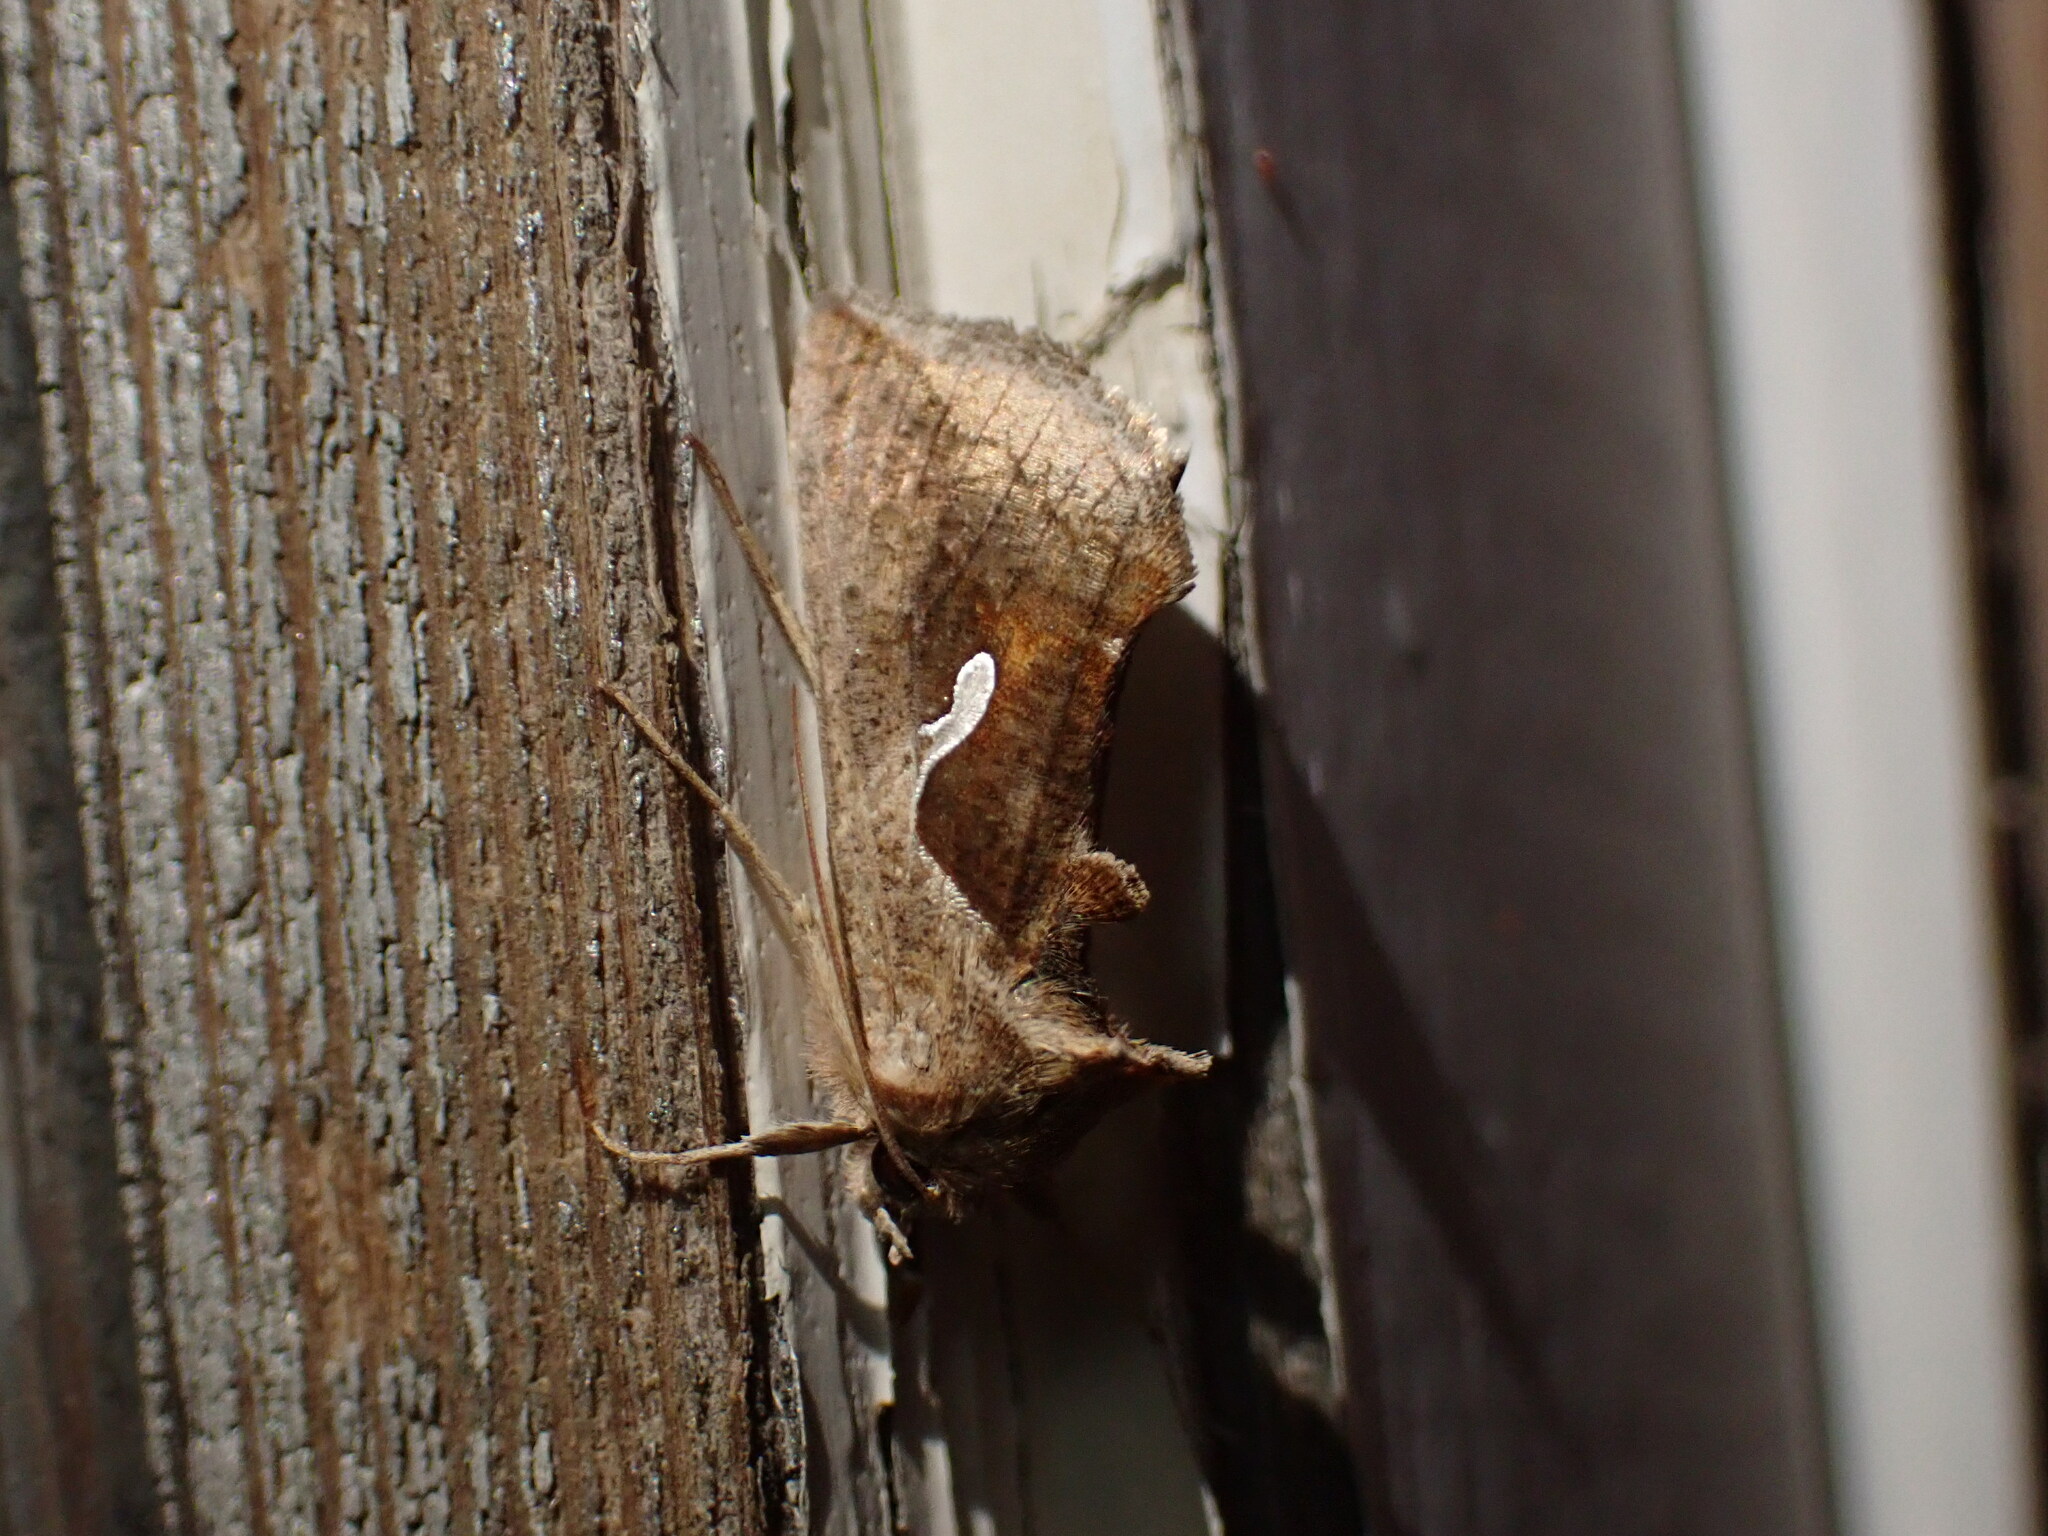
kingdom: Animalia
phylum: Arthropoda
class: Insecta
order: Lepidoptera
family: Noctuidae
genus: Anagrapha
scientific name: Anagrapha falcifera
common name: Celery looper
